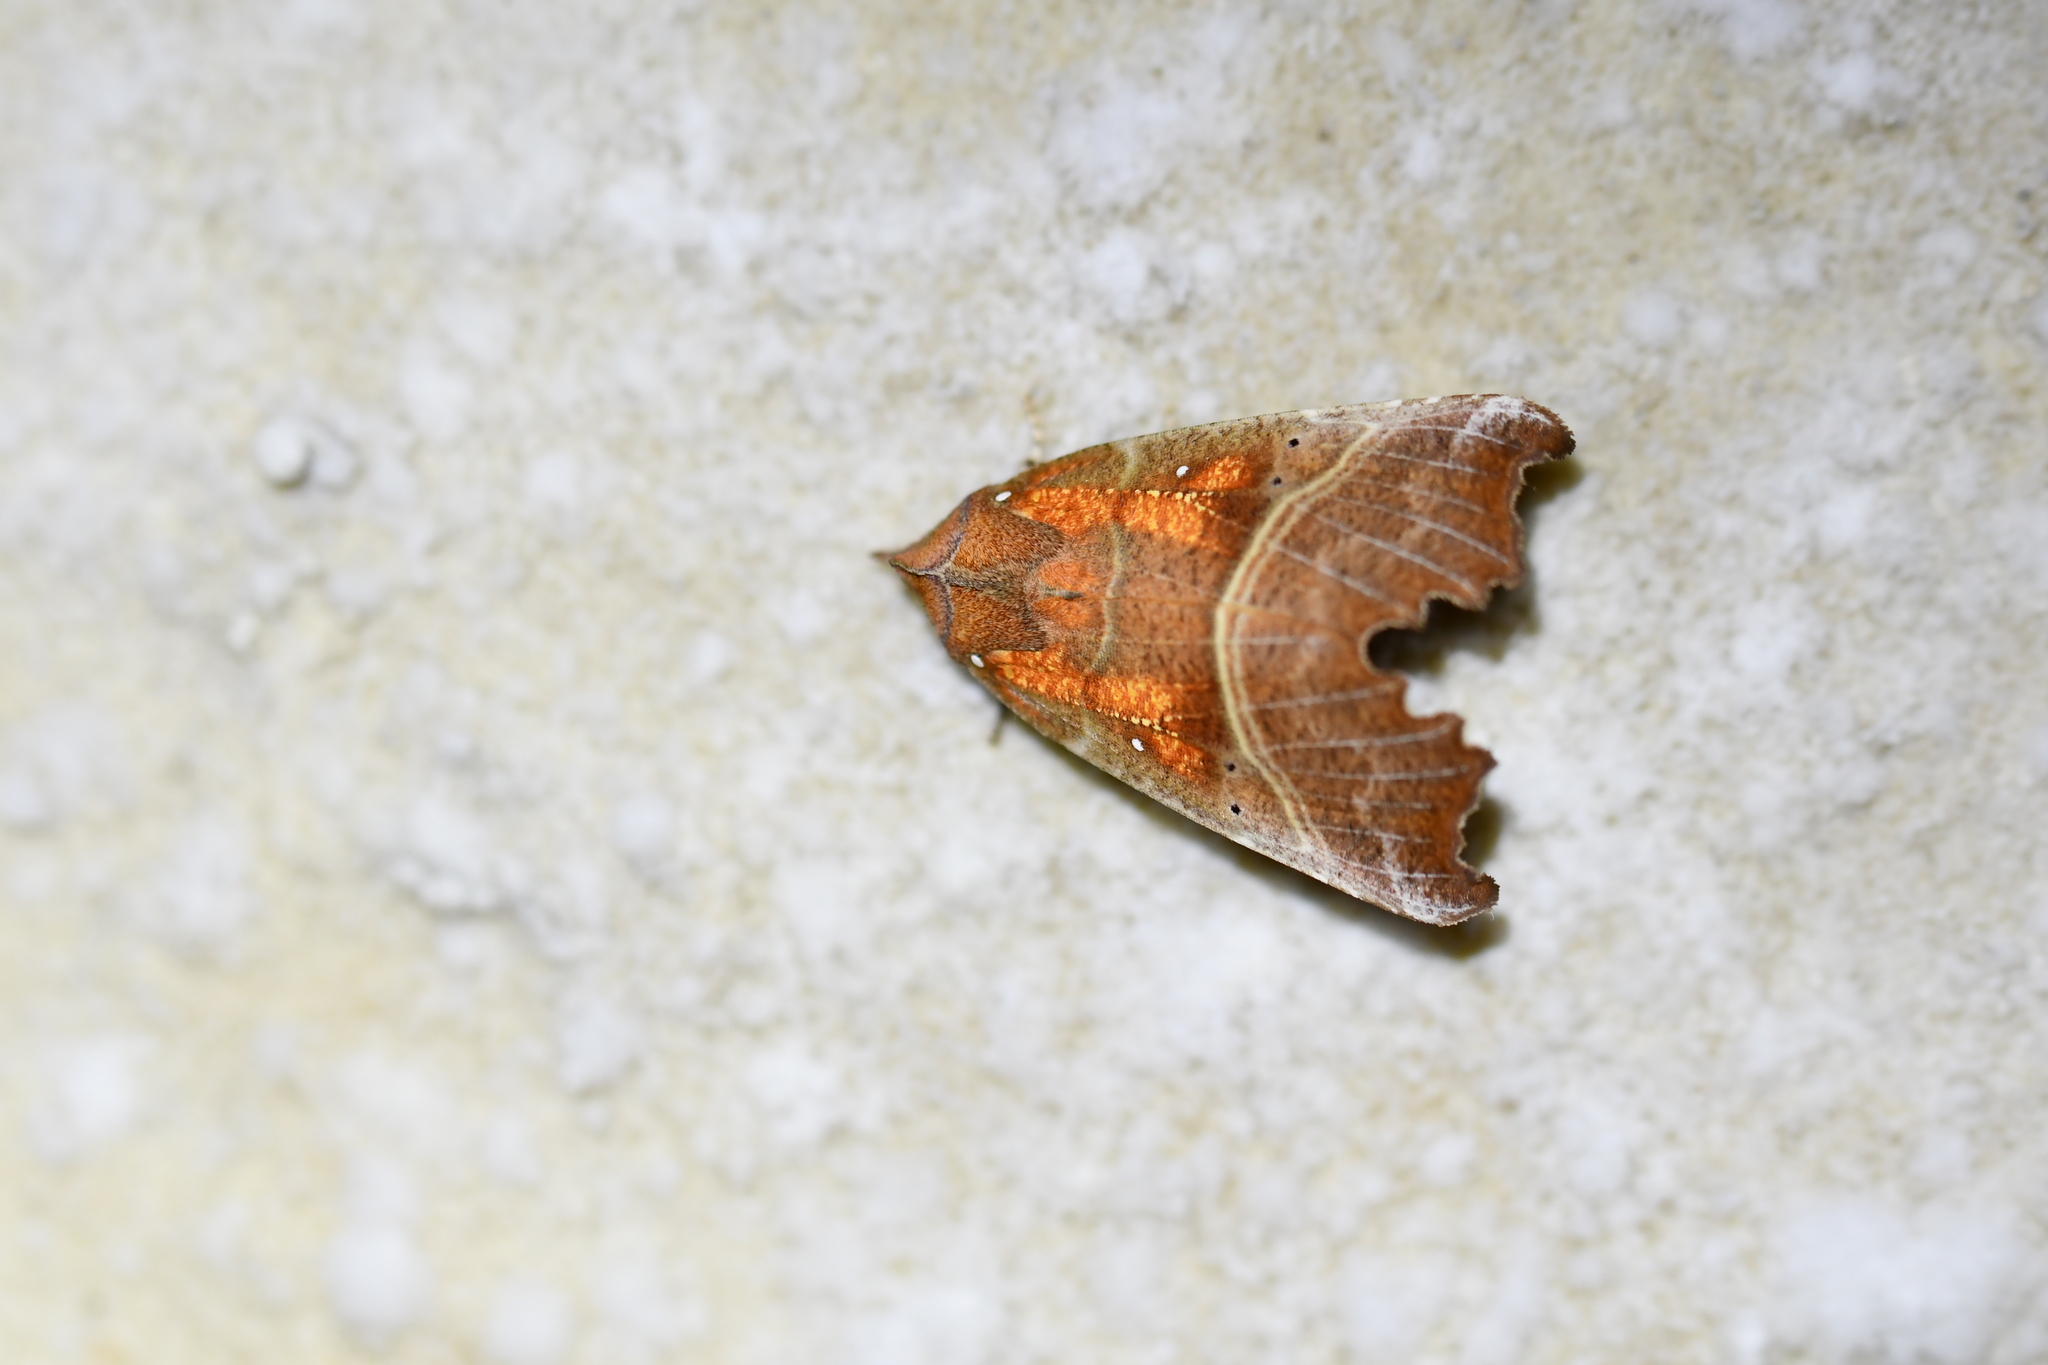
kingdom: Animalia
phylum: Arthropoda
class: Insecta
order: Lepidoptera
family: Erebidae
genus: Scoliopteryx
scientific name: Scoliopteryx libatrix
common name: Herald
